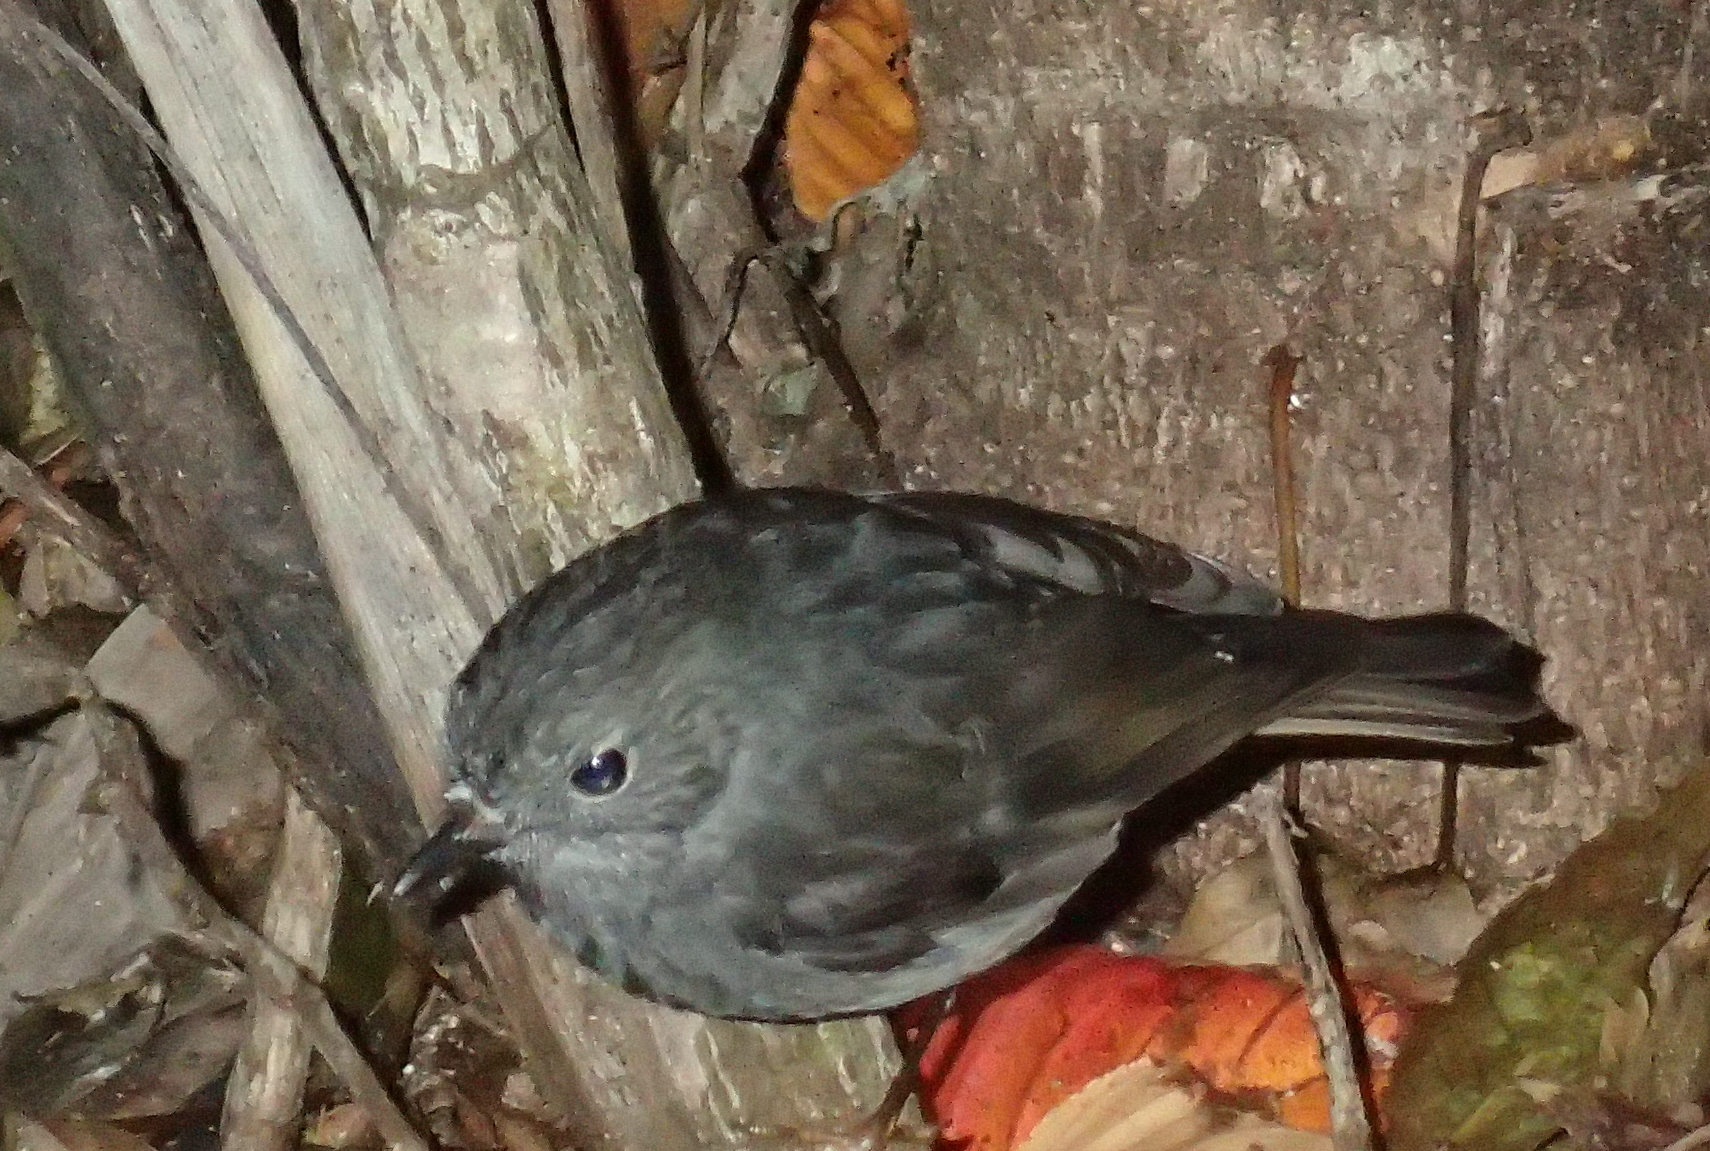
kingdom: Animalia
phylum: Chordata
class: Aves
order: Passeriformes
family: Petroicidae
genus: Petroica
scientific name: Petroica australis
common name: New zealand robin
